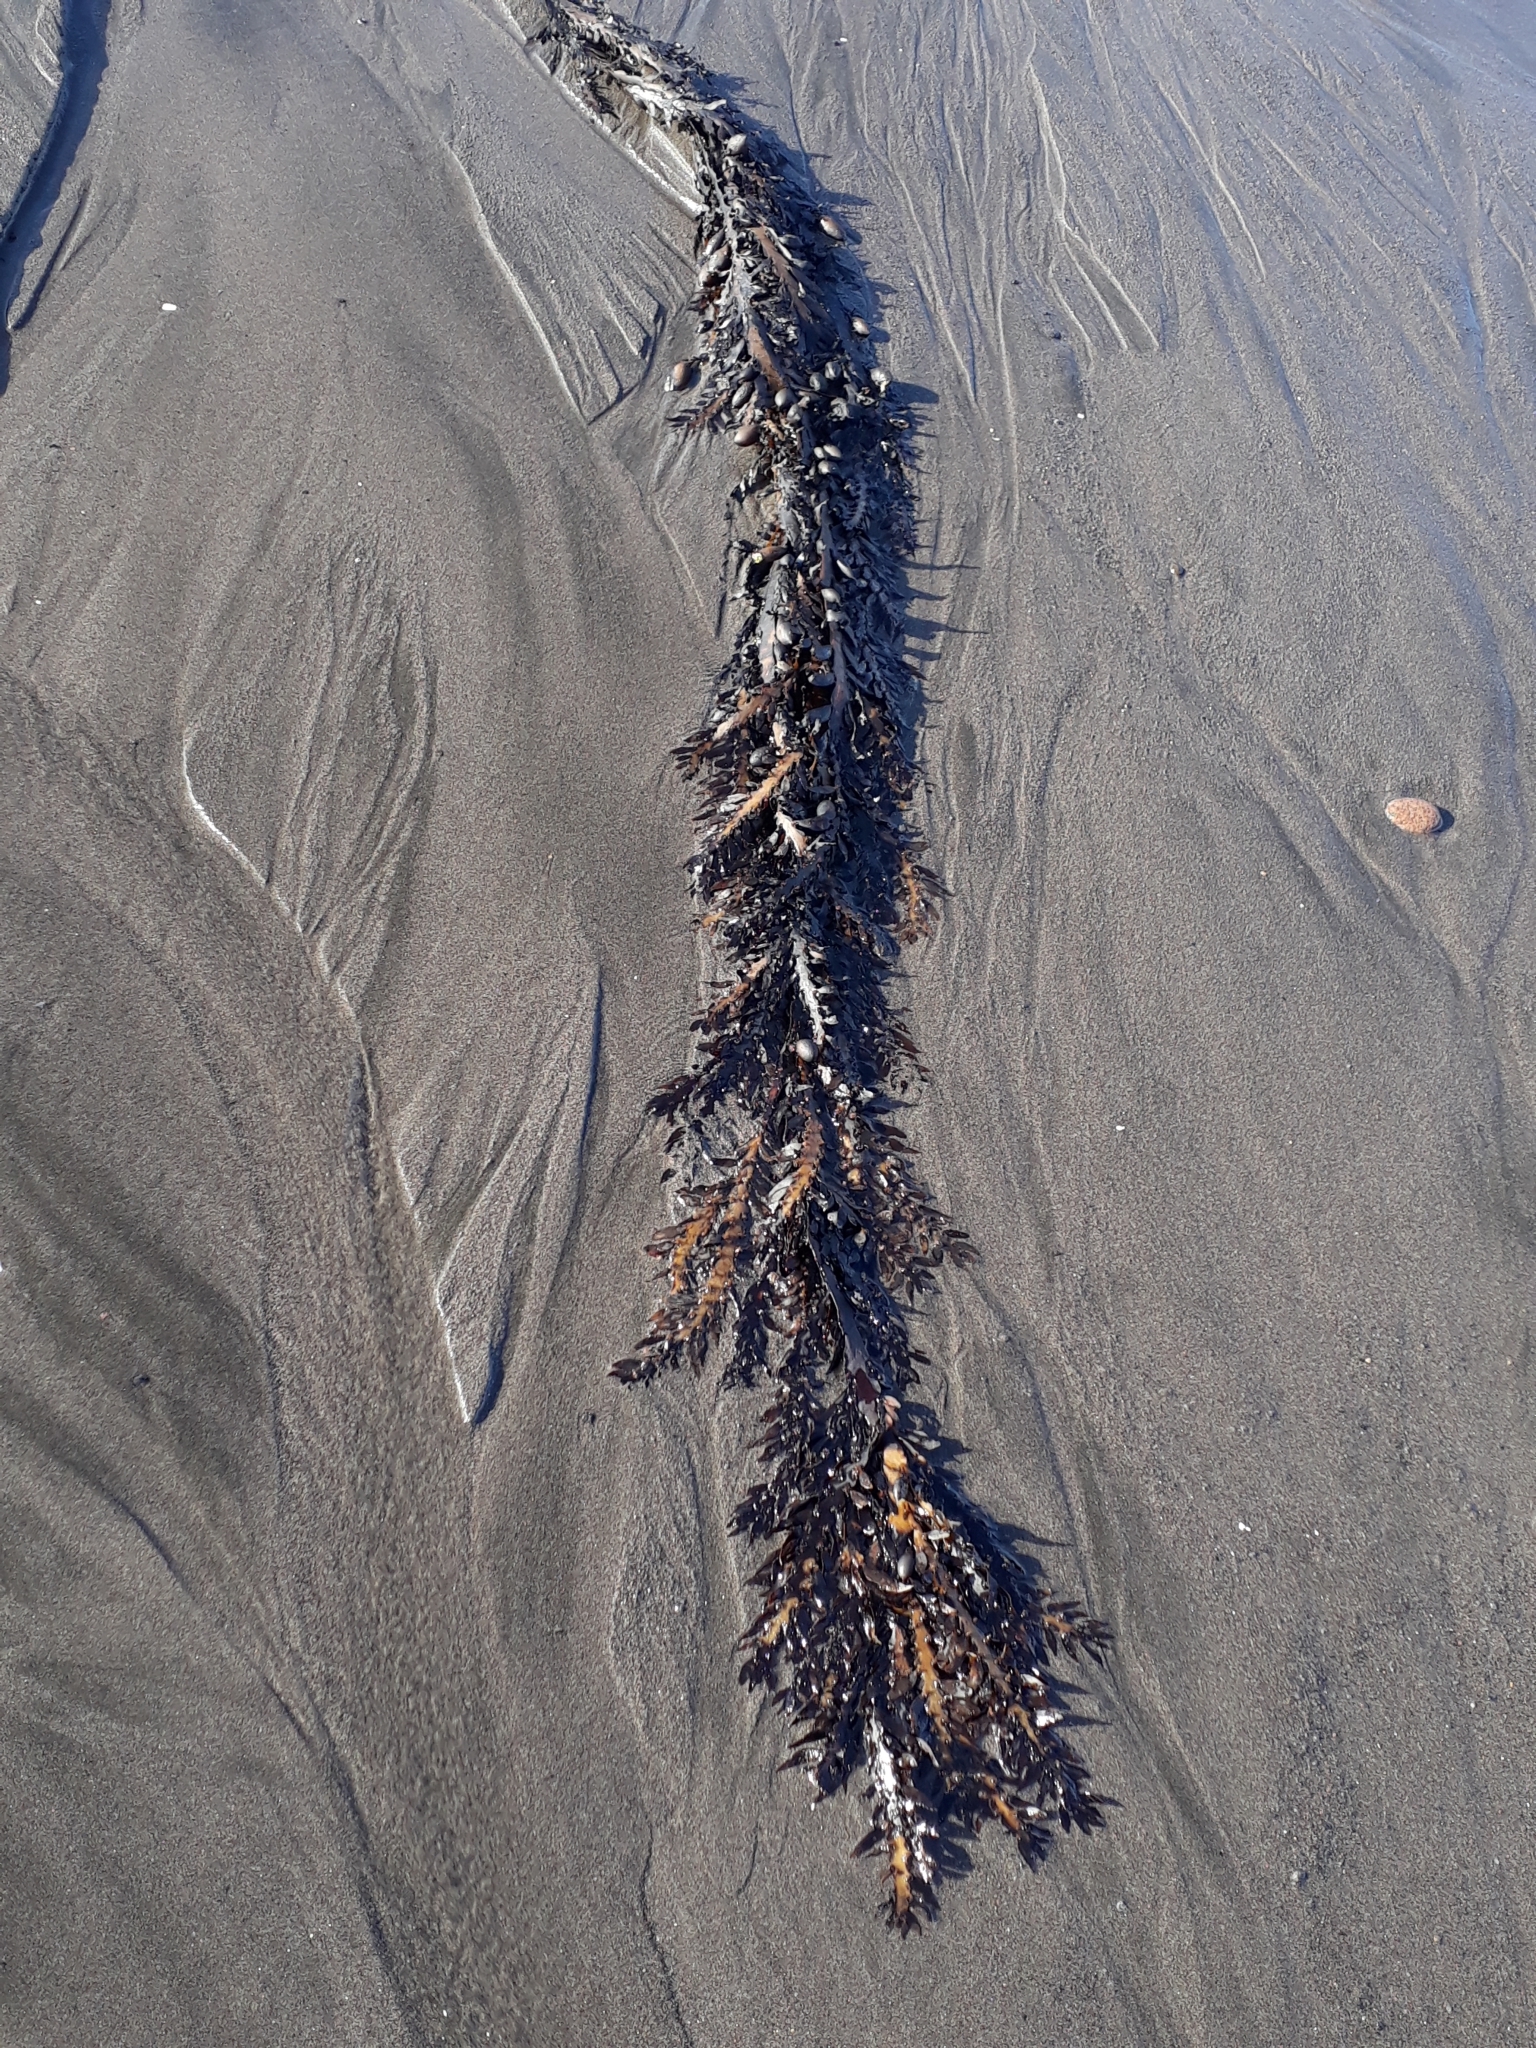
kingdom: Chromista
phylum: Ochrophyta
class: Phaeophyceae
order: Fucales
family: Sargassaceae
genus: Carpophyllum
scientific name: Carpophyllum maschalocarpum
